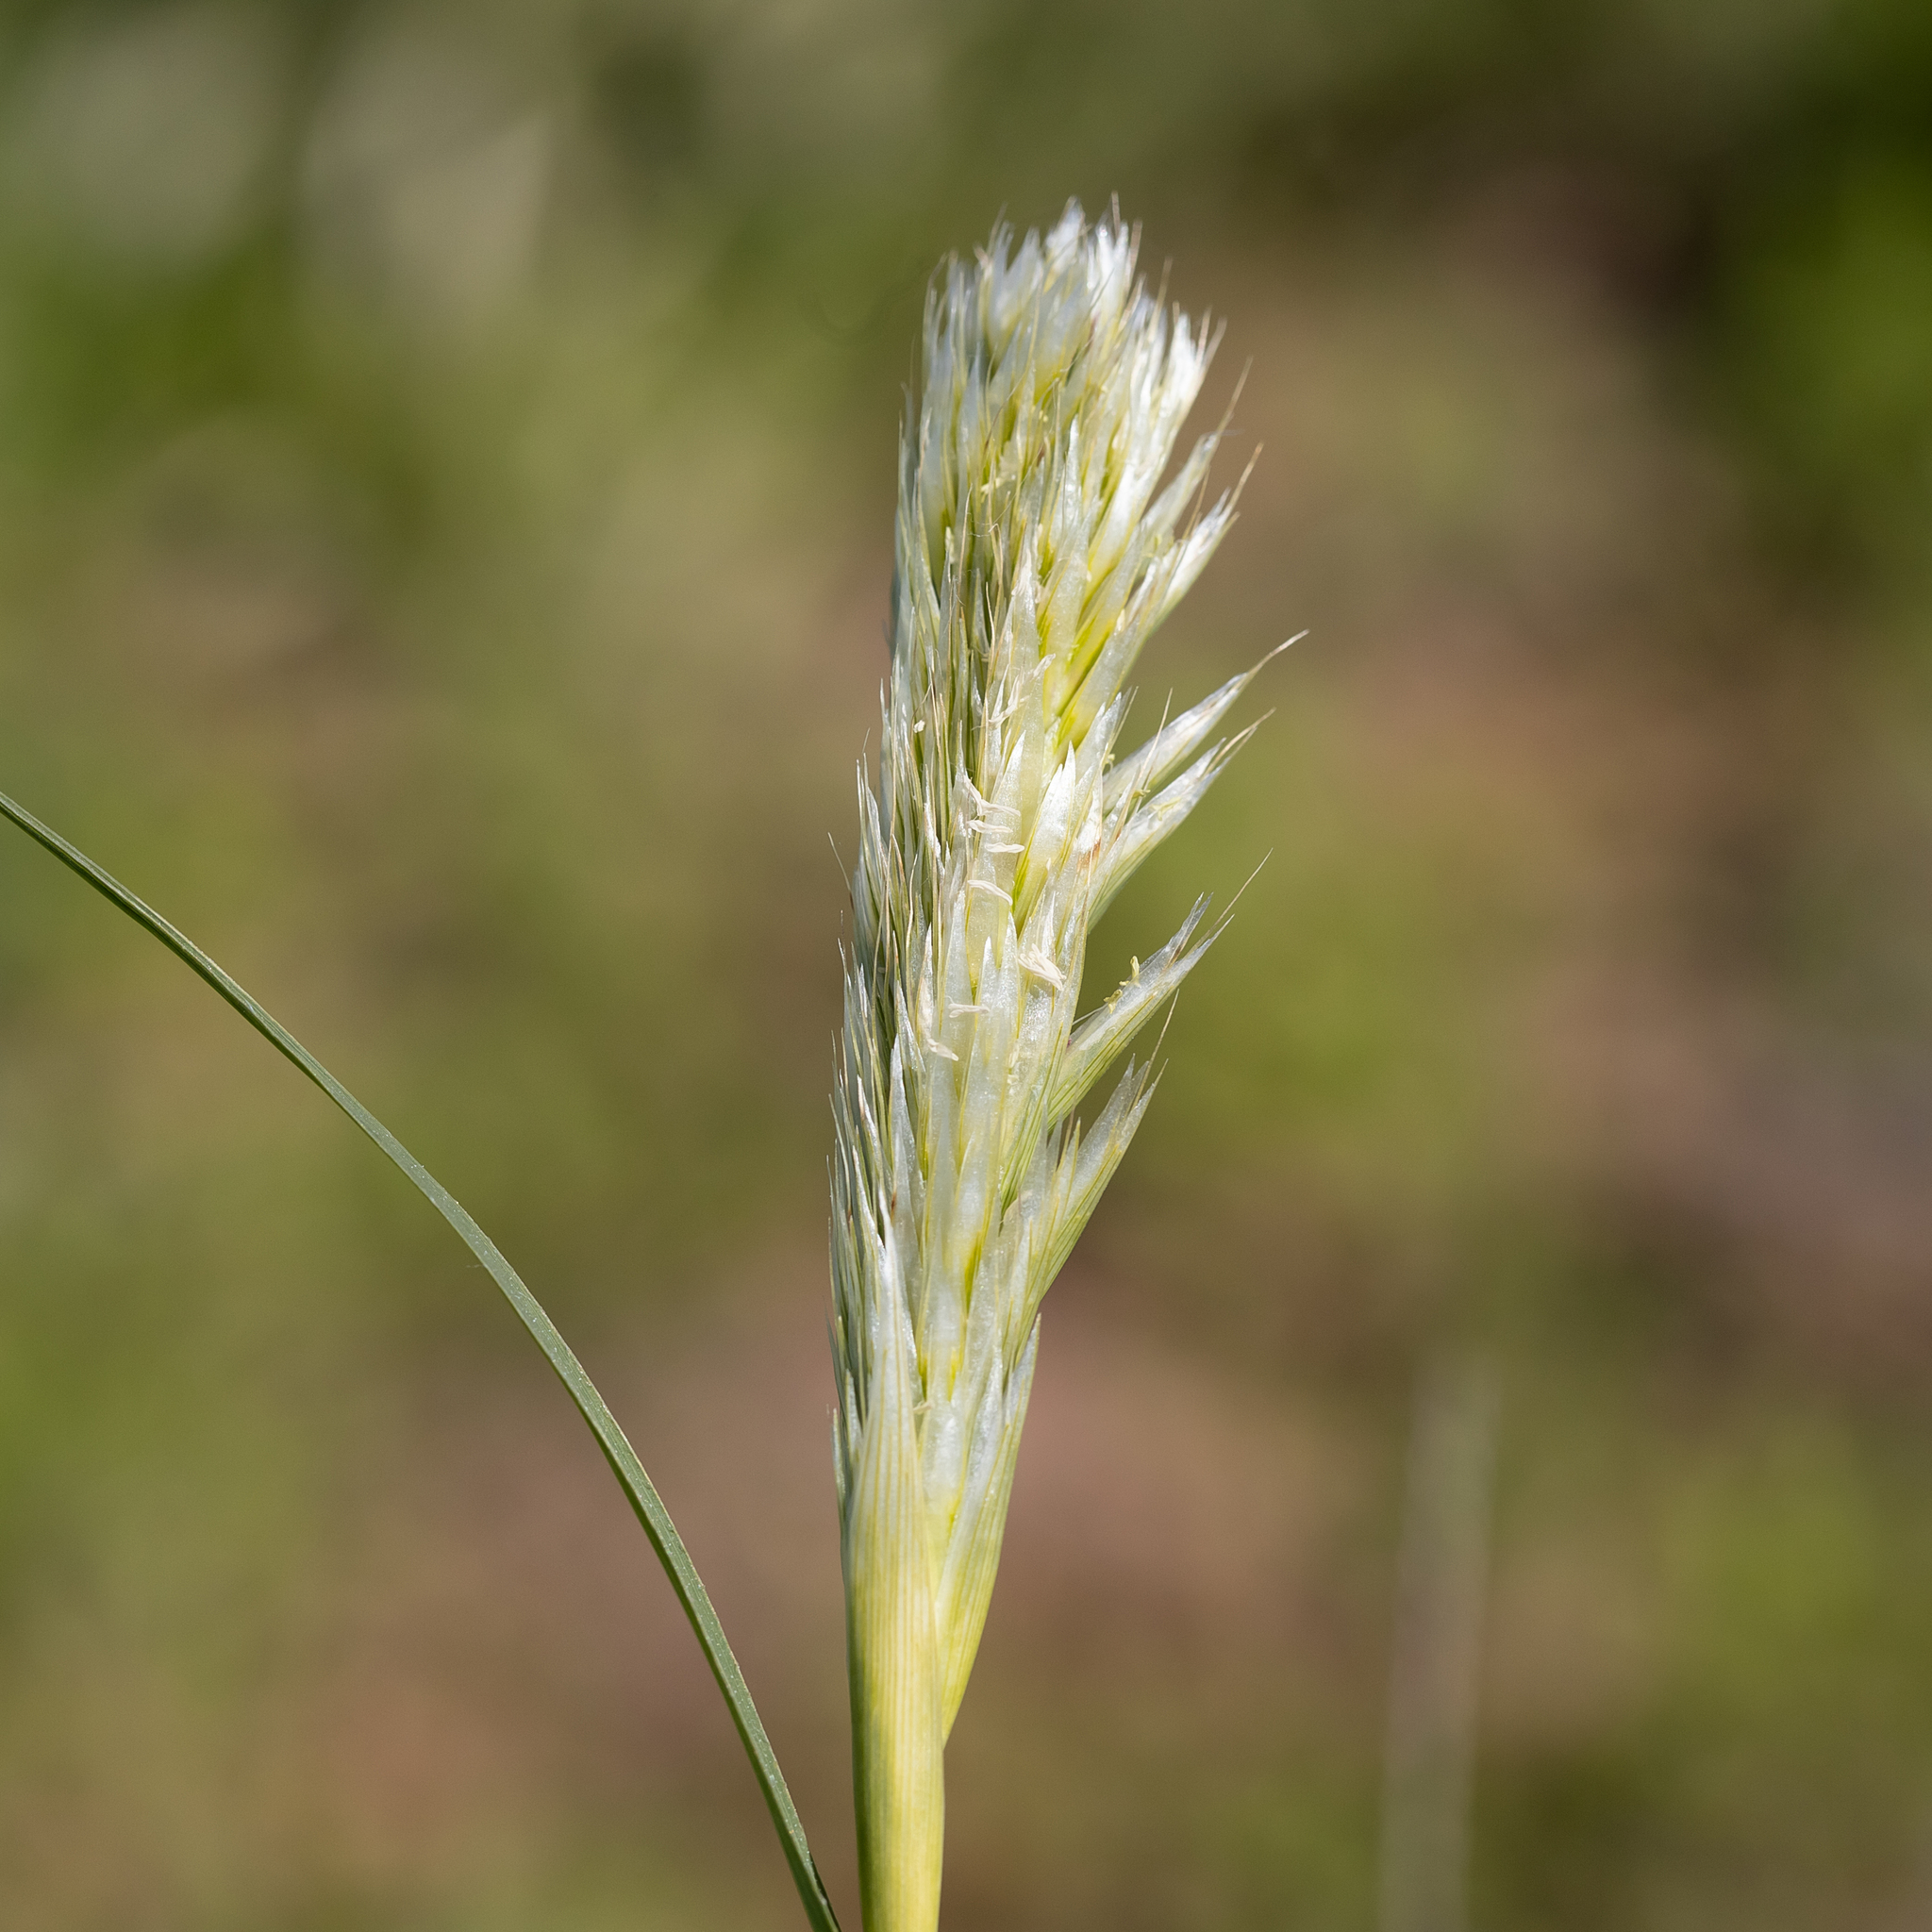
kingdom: Plantae
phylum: Tracheophyta
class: Liliopsida
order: Poales
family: Poaceae
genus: Astrebla
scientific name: Astrebla pectinata
